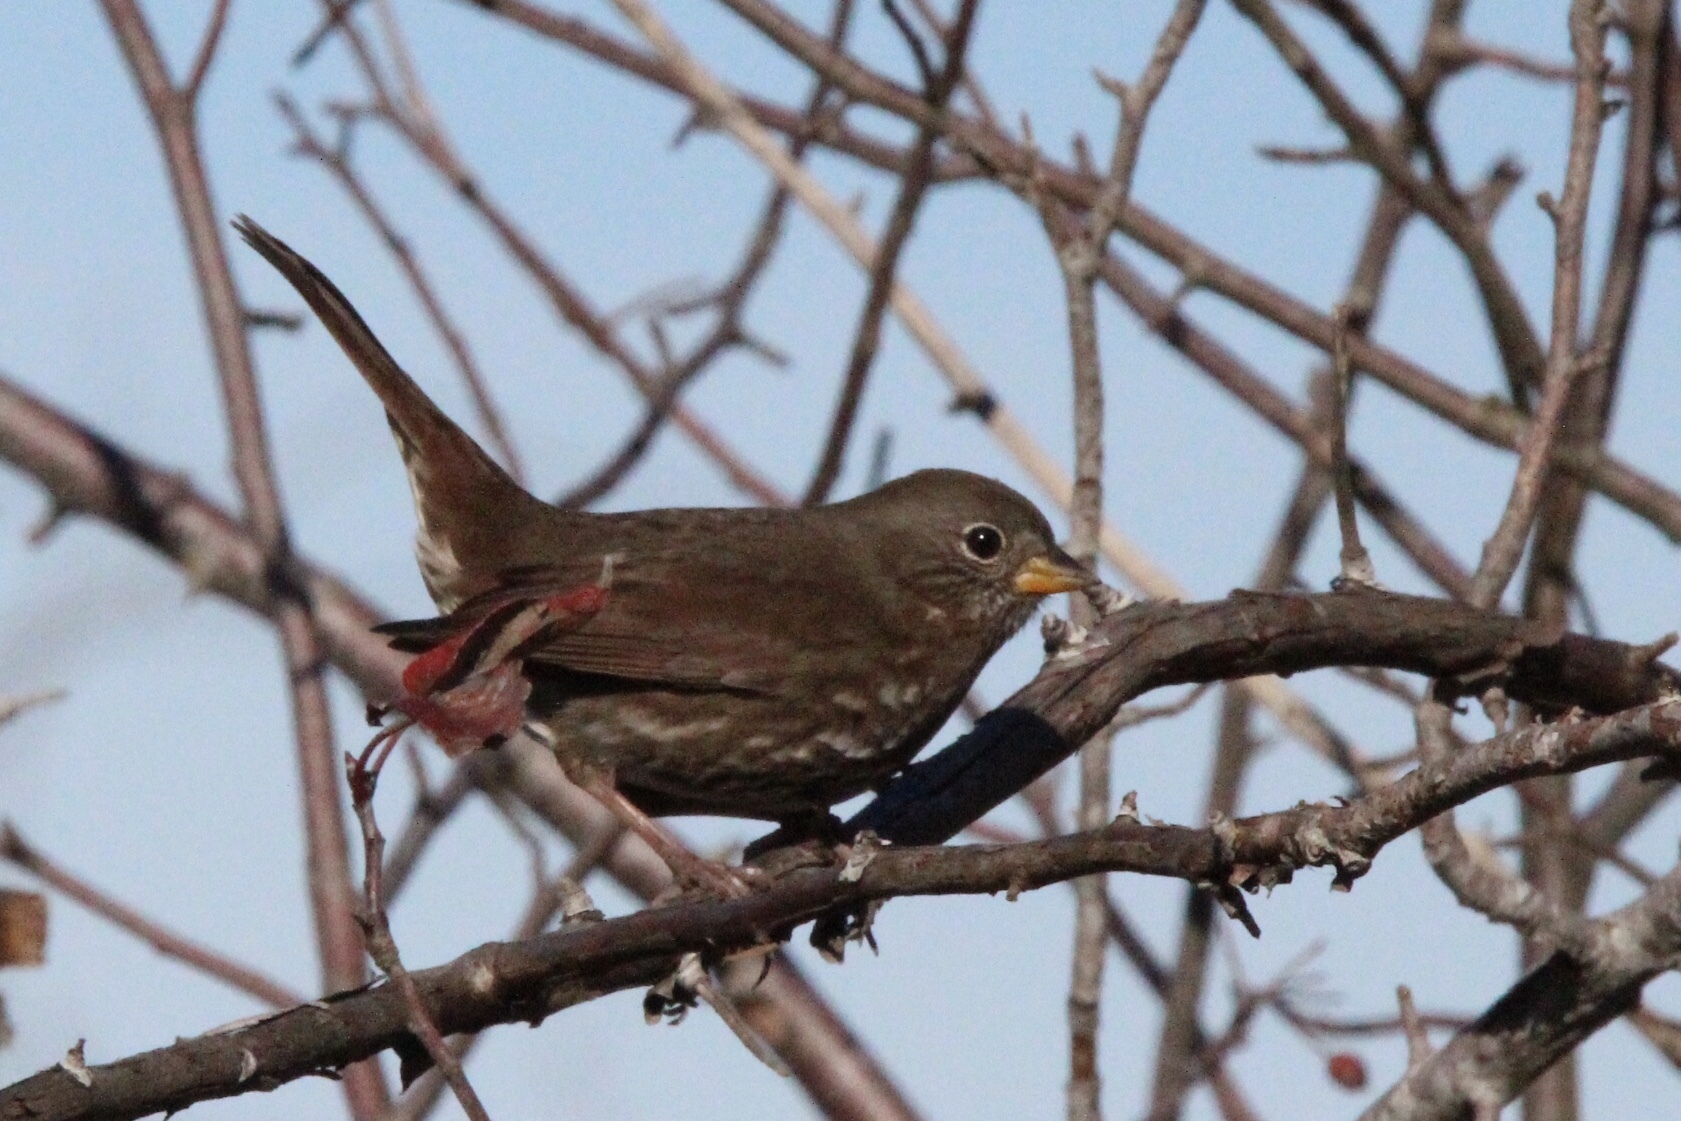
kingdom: Animalia
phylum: Chordata
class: Aves
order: Passeriformes
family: Passerellidae
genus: Passerella
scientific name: Passerella iliaca
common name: Fox sparrow
